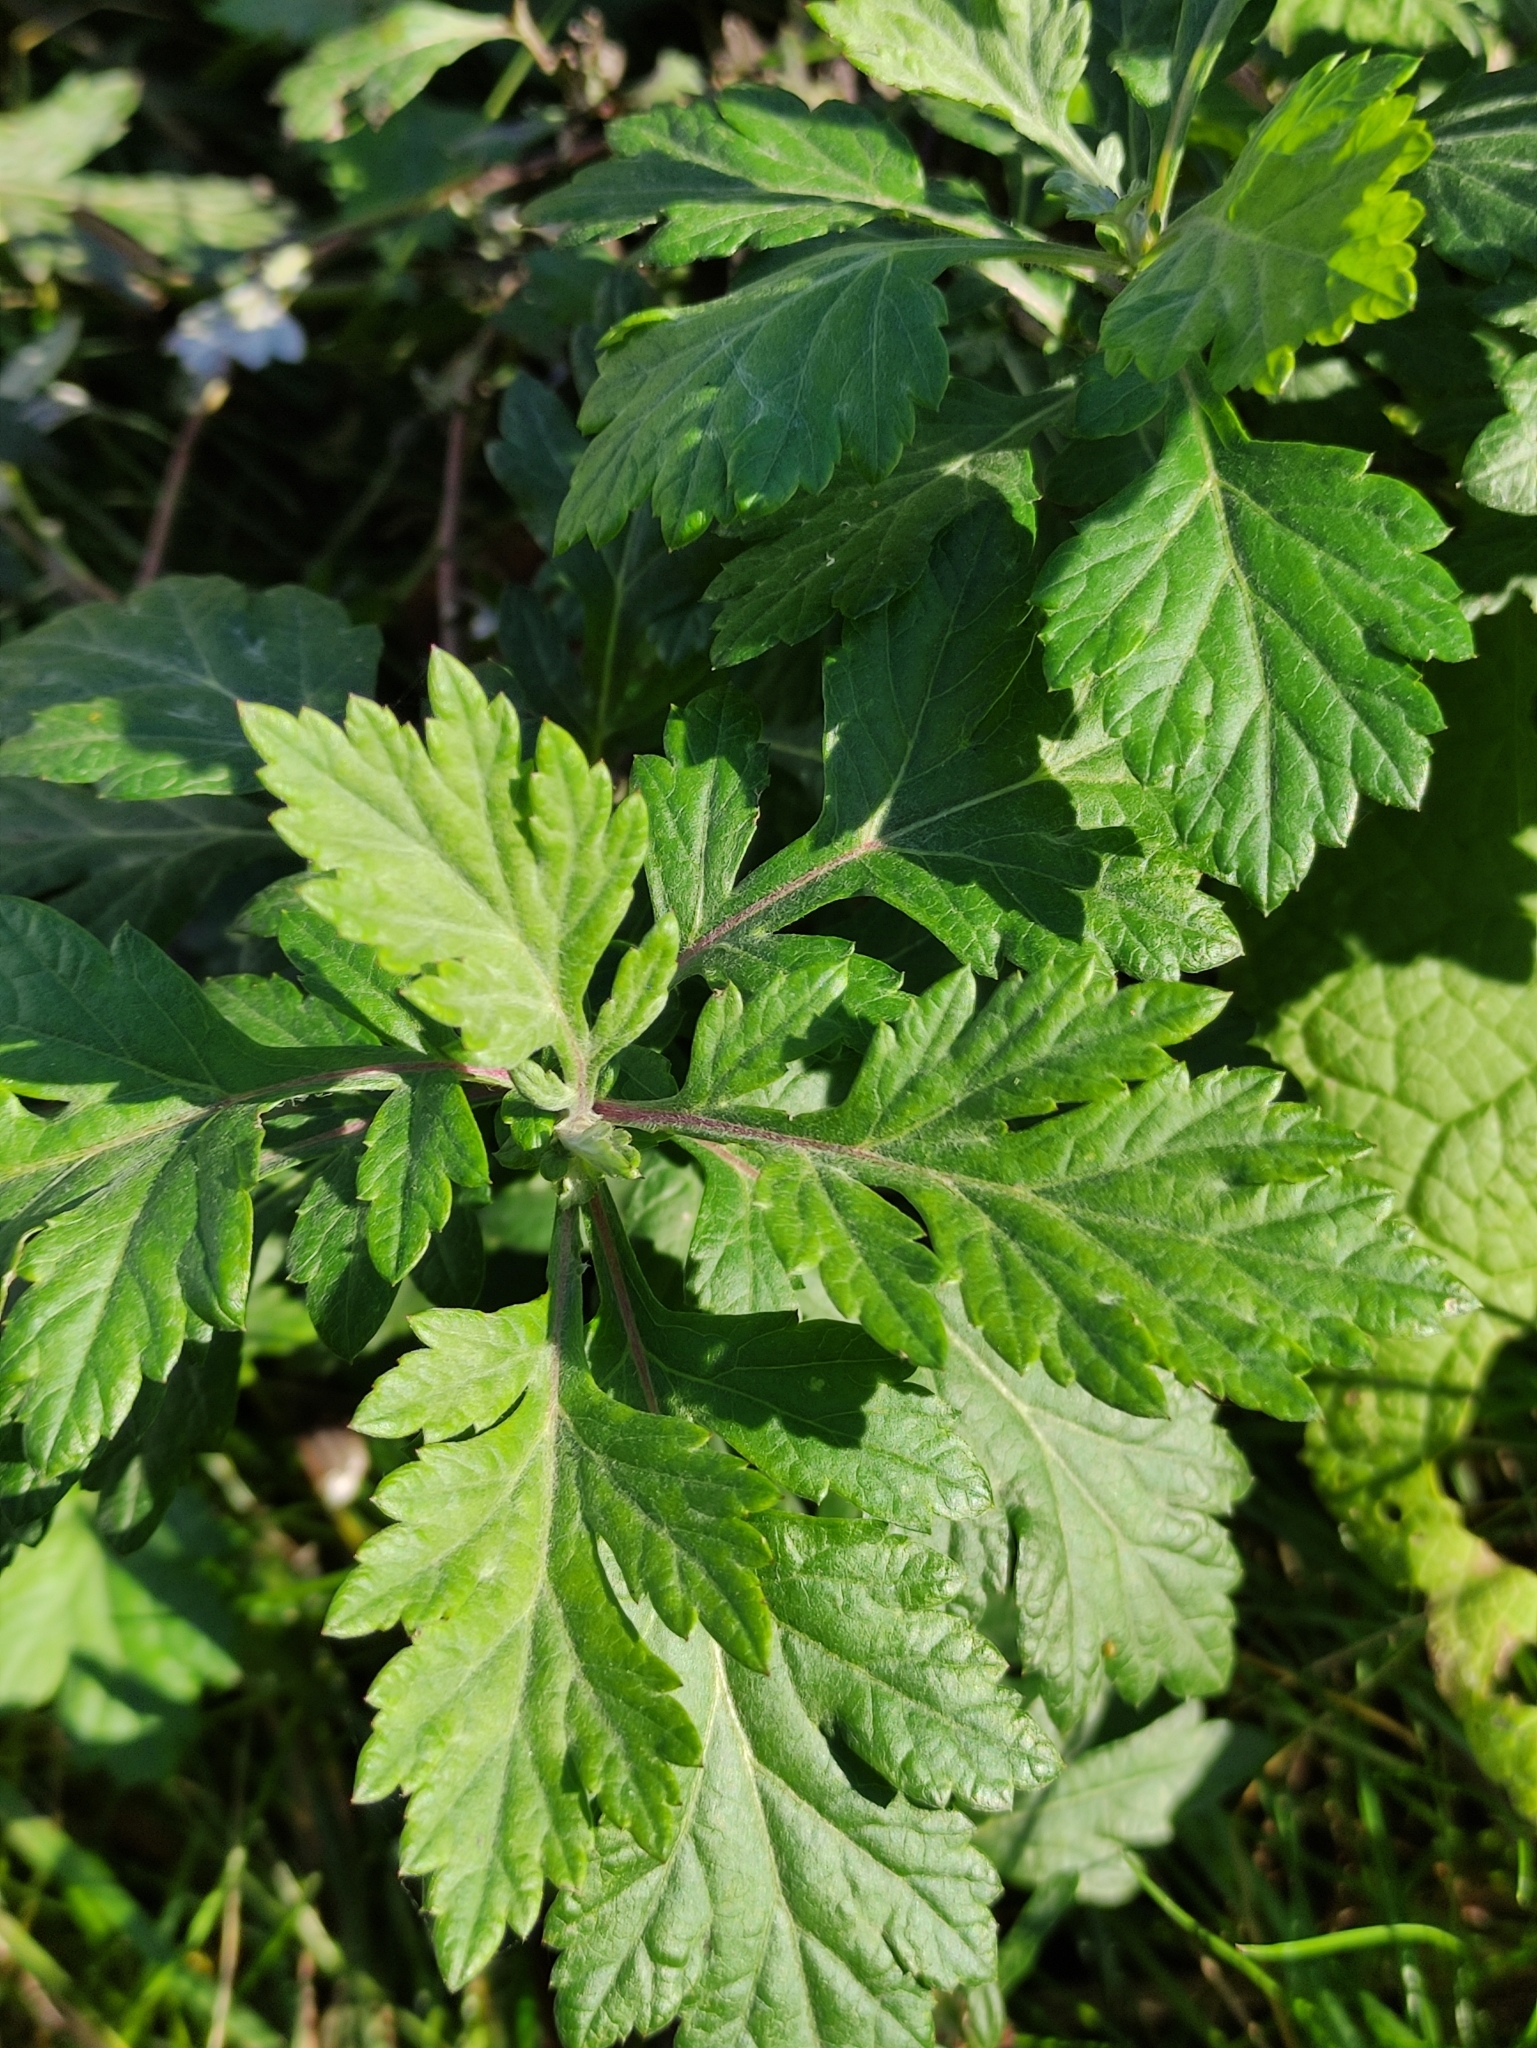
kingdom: Plantae
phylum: Tracheophyta
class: Magnoliopsida
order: Asterales
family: Asteraceae
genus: Artemisia
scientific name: Artemisia vulgaris
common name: Mugwort
